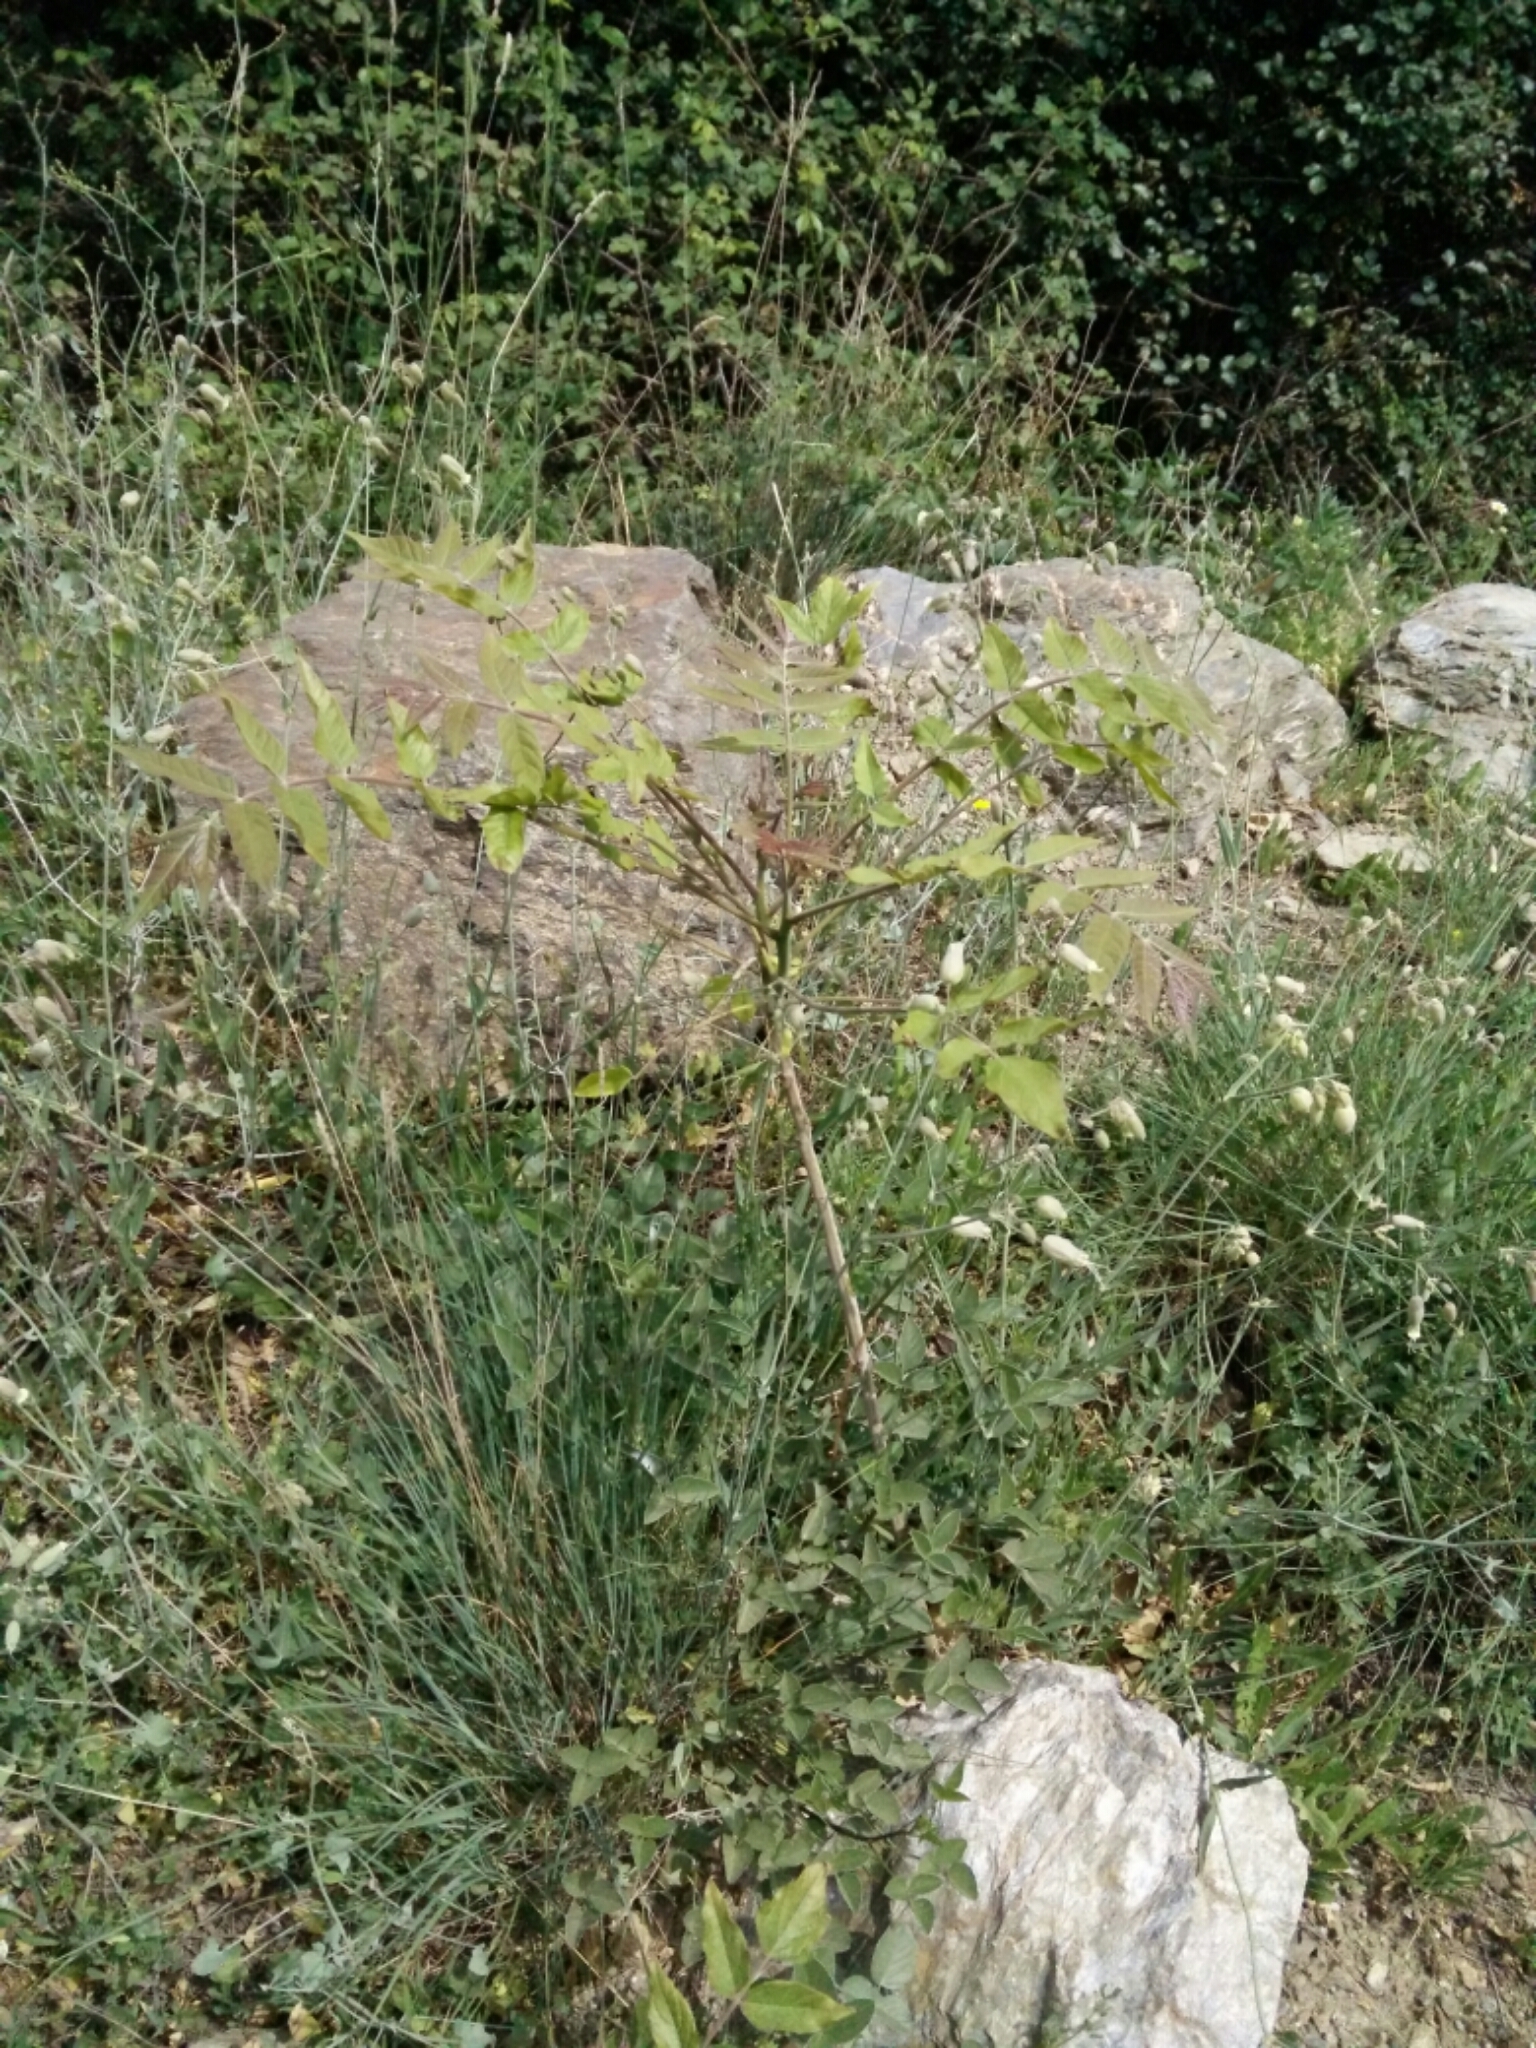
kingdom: Plantae
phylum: Tracheophyta
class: Magnoliopsida
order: Sapindales
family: Simaroubaceae
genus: Ailanthus
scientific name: Ailanthus altissima
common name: Tree-of-heaven
